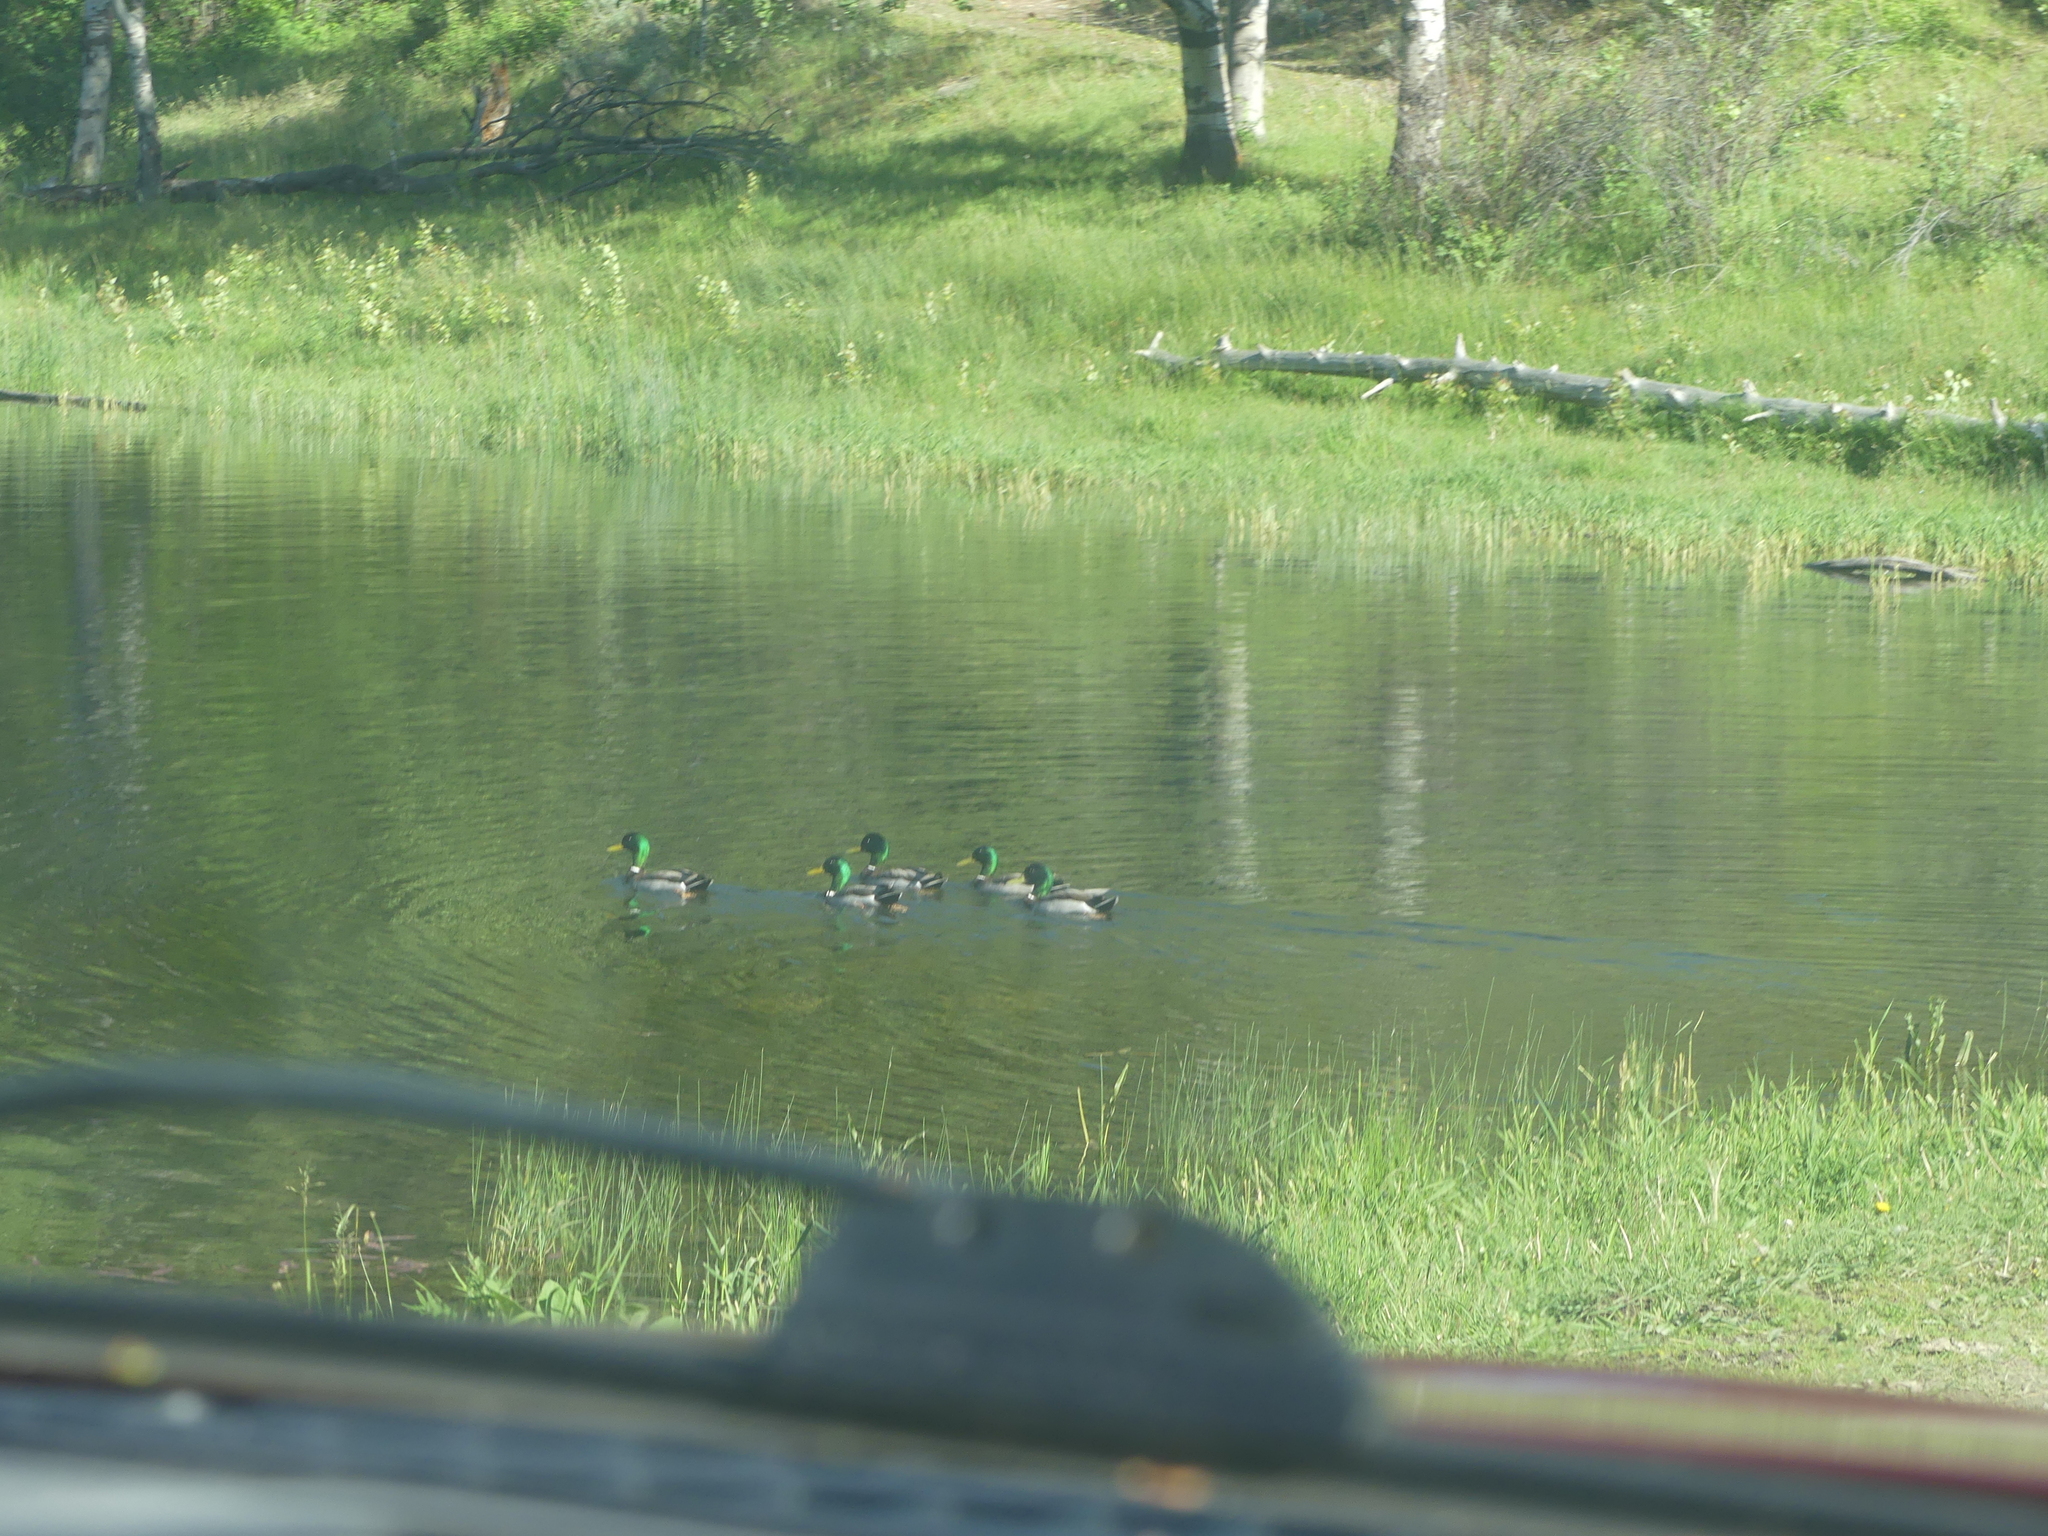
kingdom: Animalia
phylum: Chordata
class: Aves
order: Anseriformes
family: Anatidae
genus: Anas
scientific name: Anas platyrhynchos
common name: Mallard
